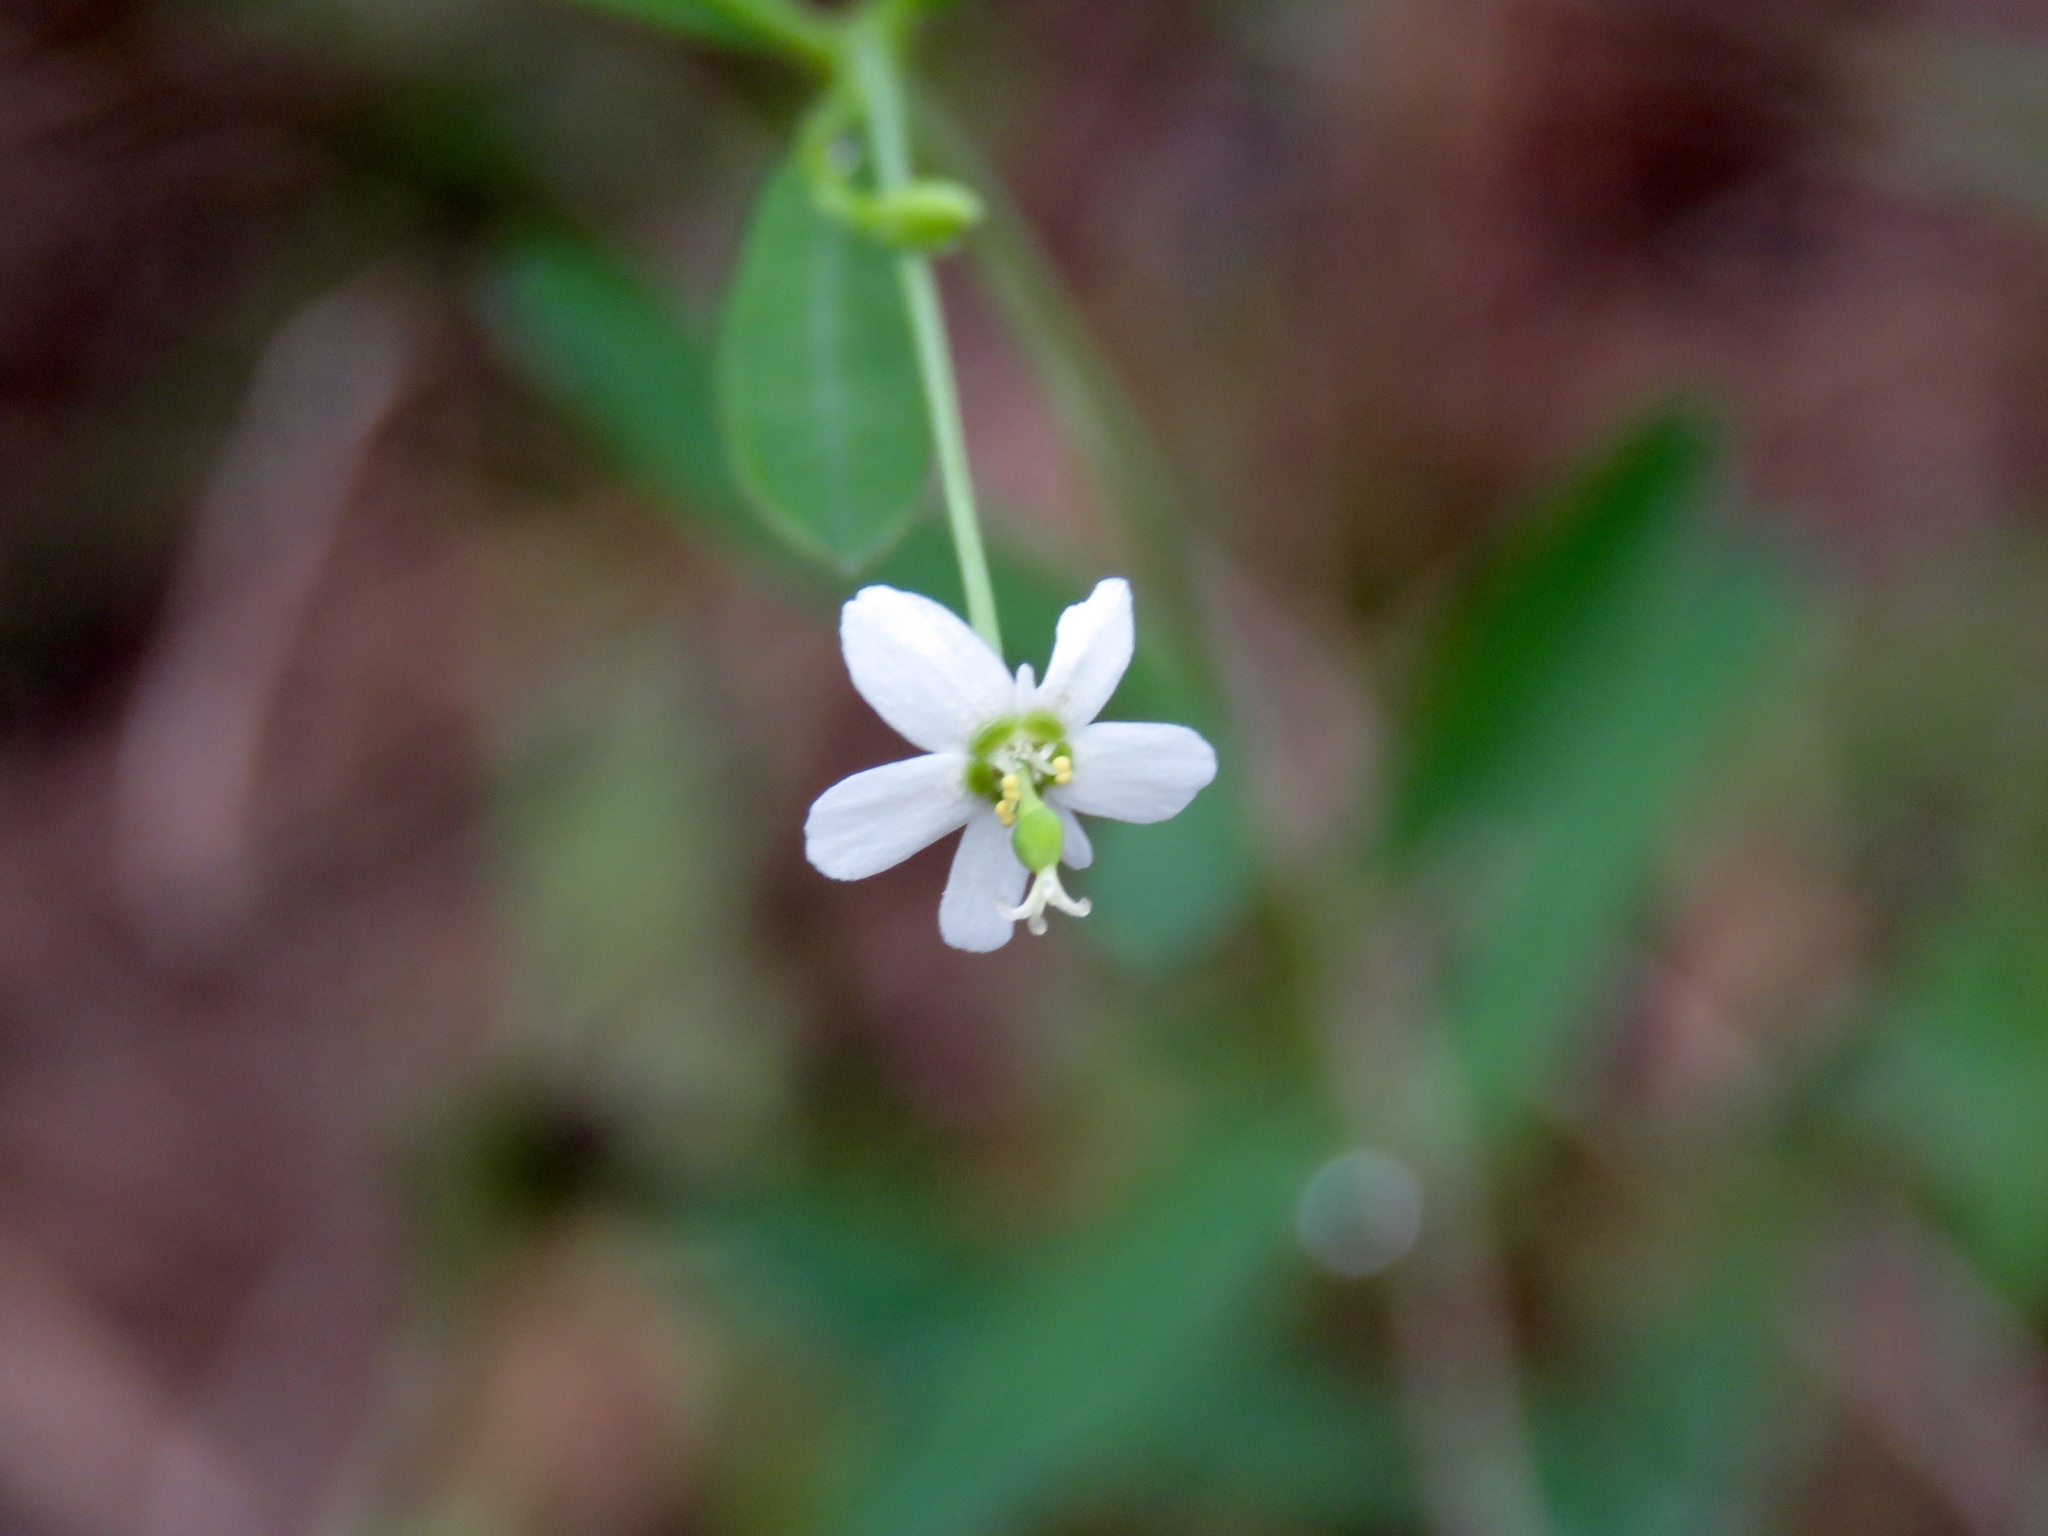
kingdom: Plantae
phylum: Tracheophyta
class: Magnoliopsida
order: Malpighiales
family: Euphorbiaceae
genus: Euphorbia
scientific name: Euphorbia corollata
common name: Flowering spurge
